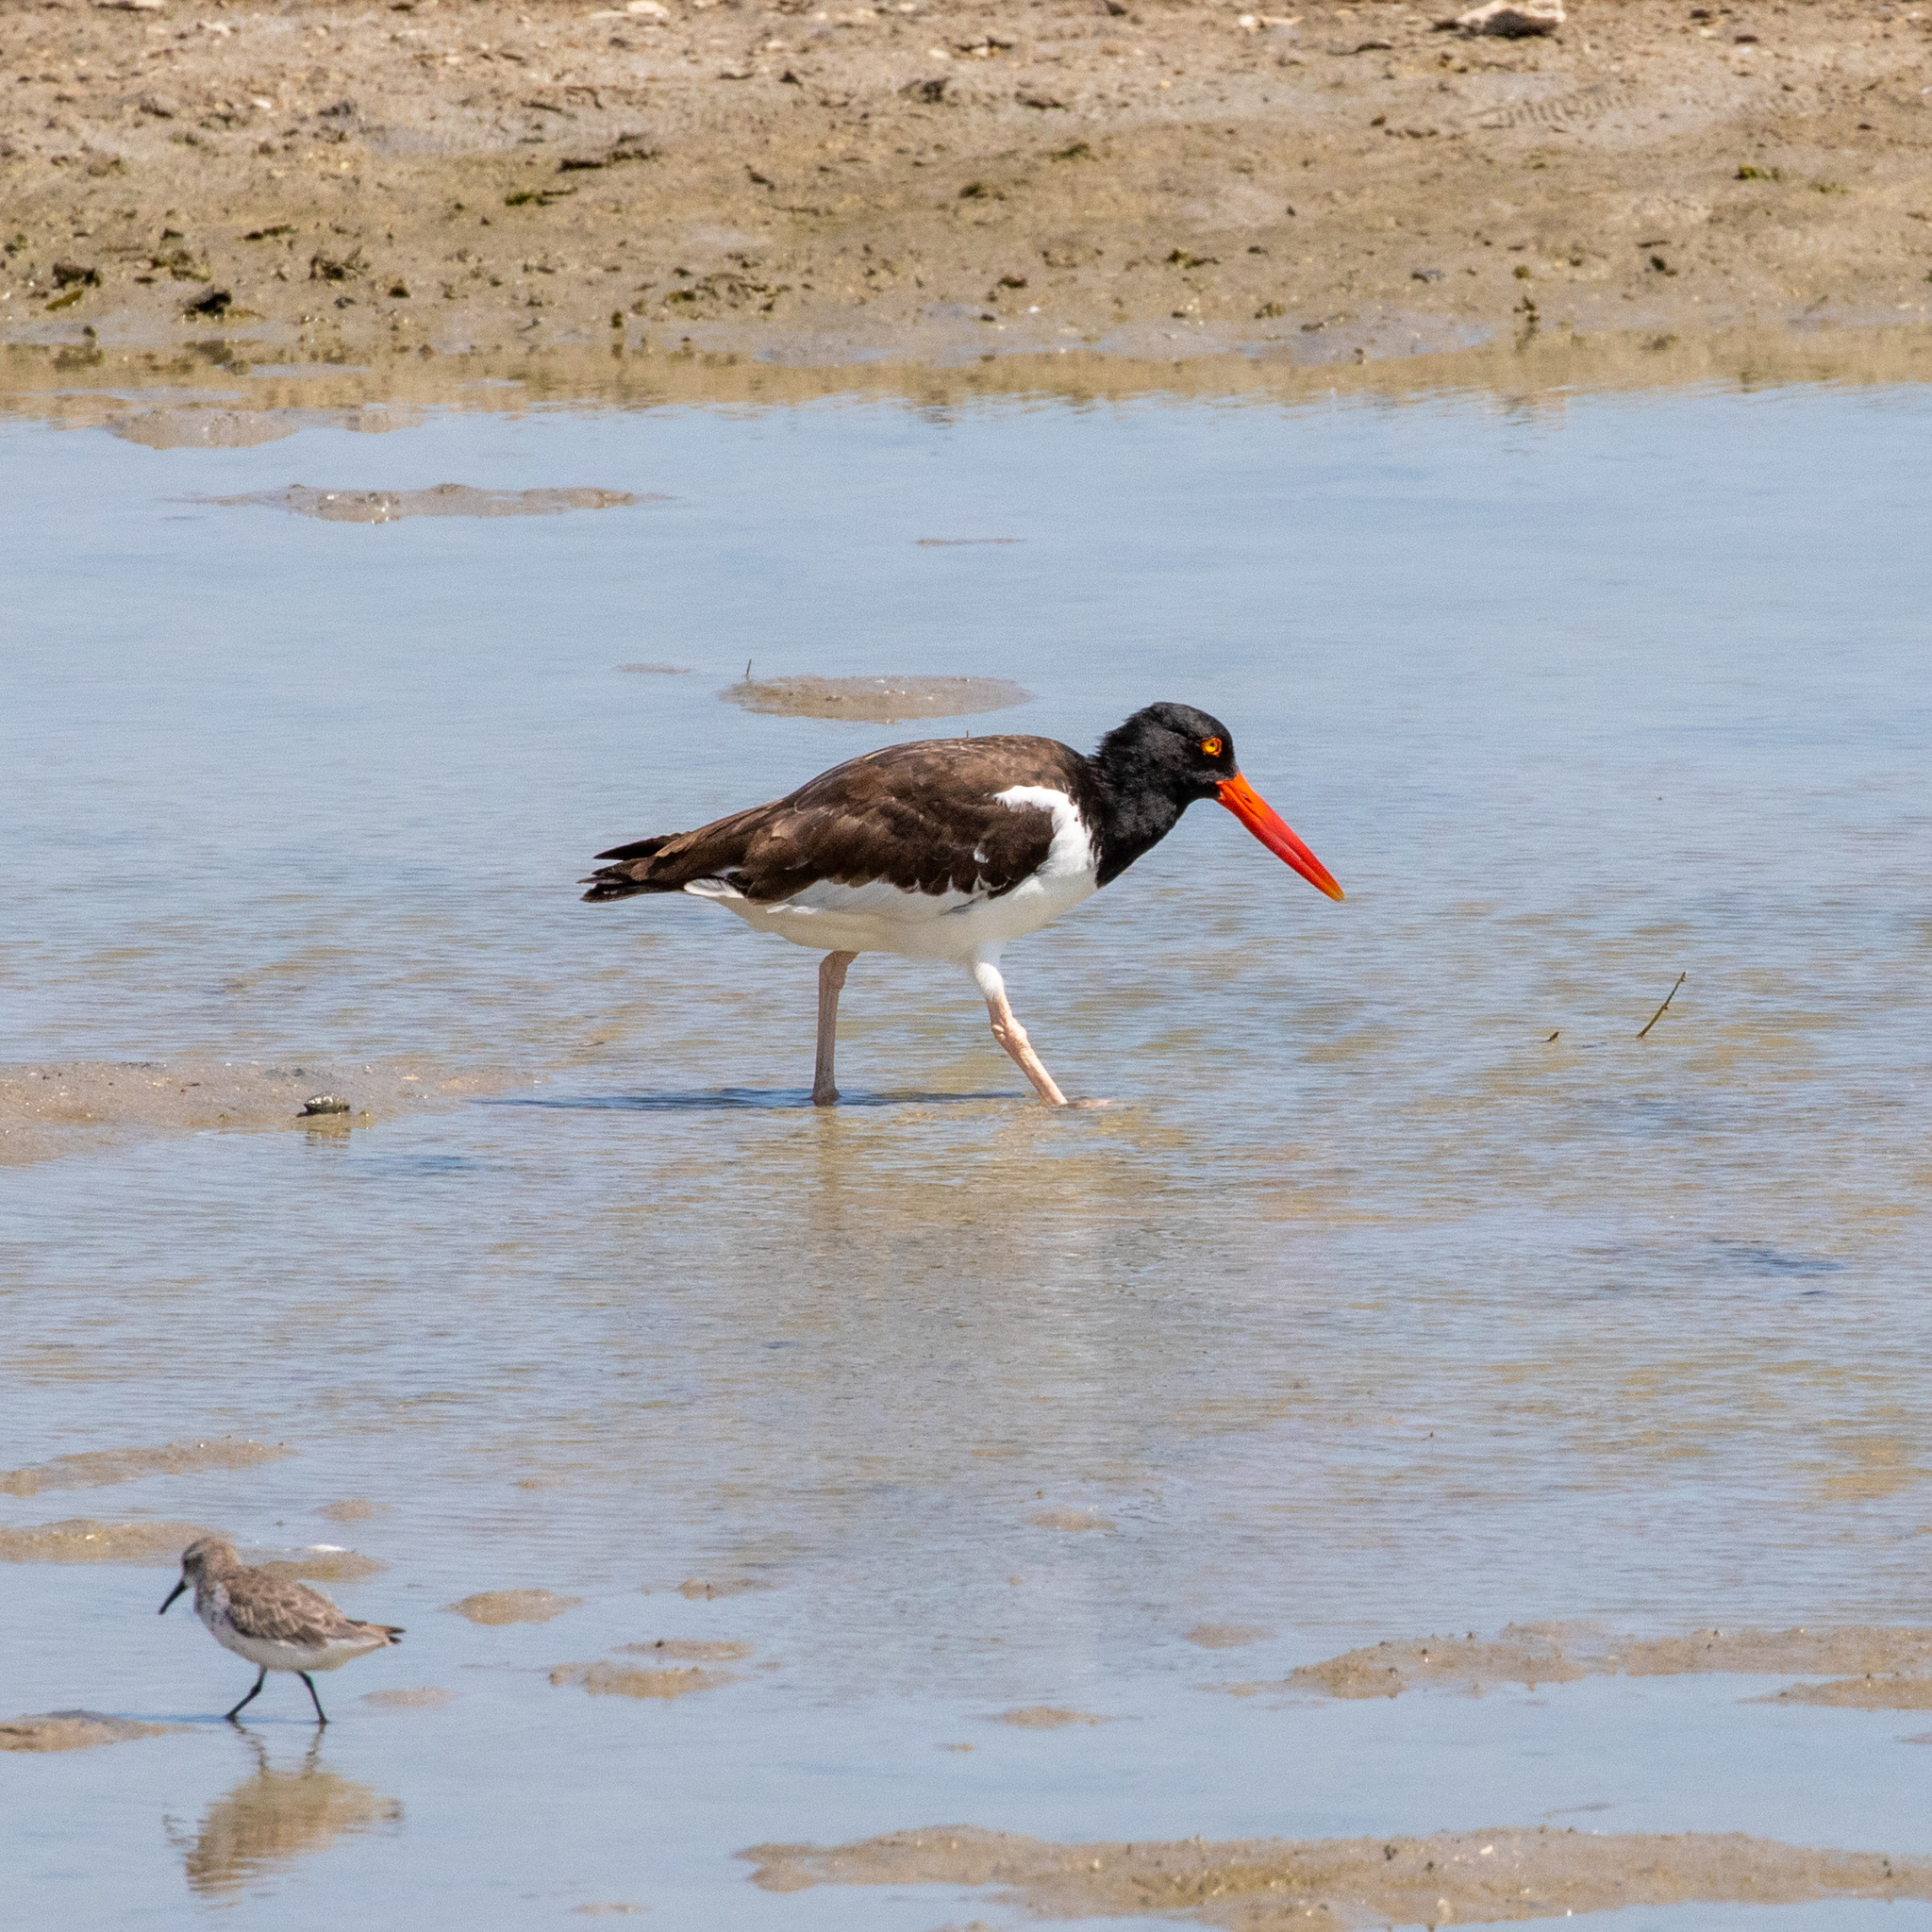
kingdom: Animalia
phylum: Chordata
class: Aves
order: Charadriiformes
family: Haematopodidae
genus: Haematopus
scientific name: Haematopus palliatus
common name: American oystercatcher
